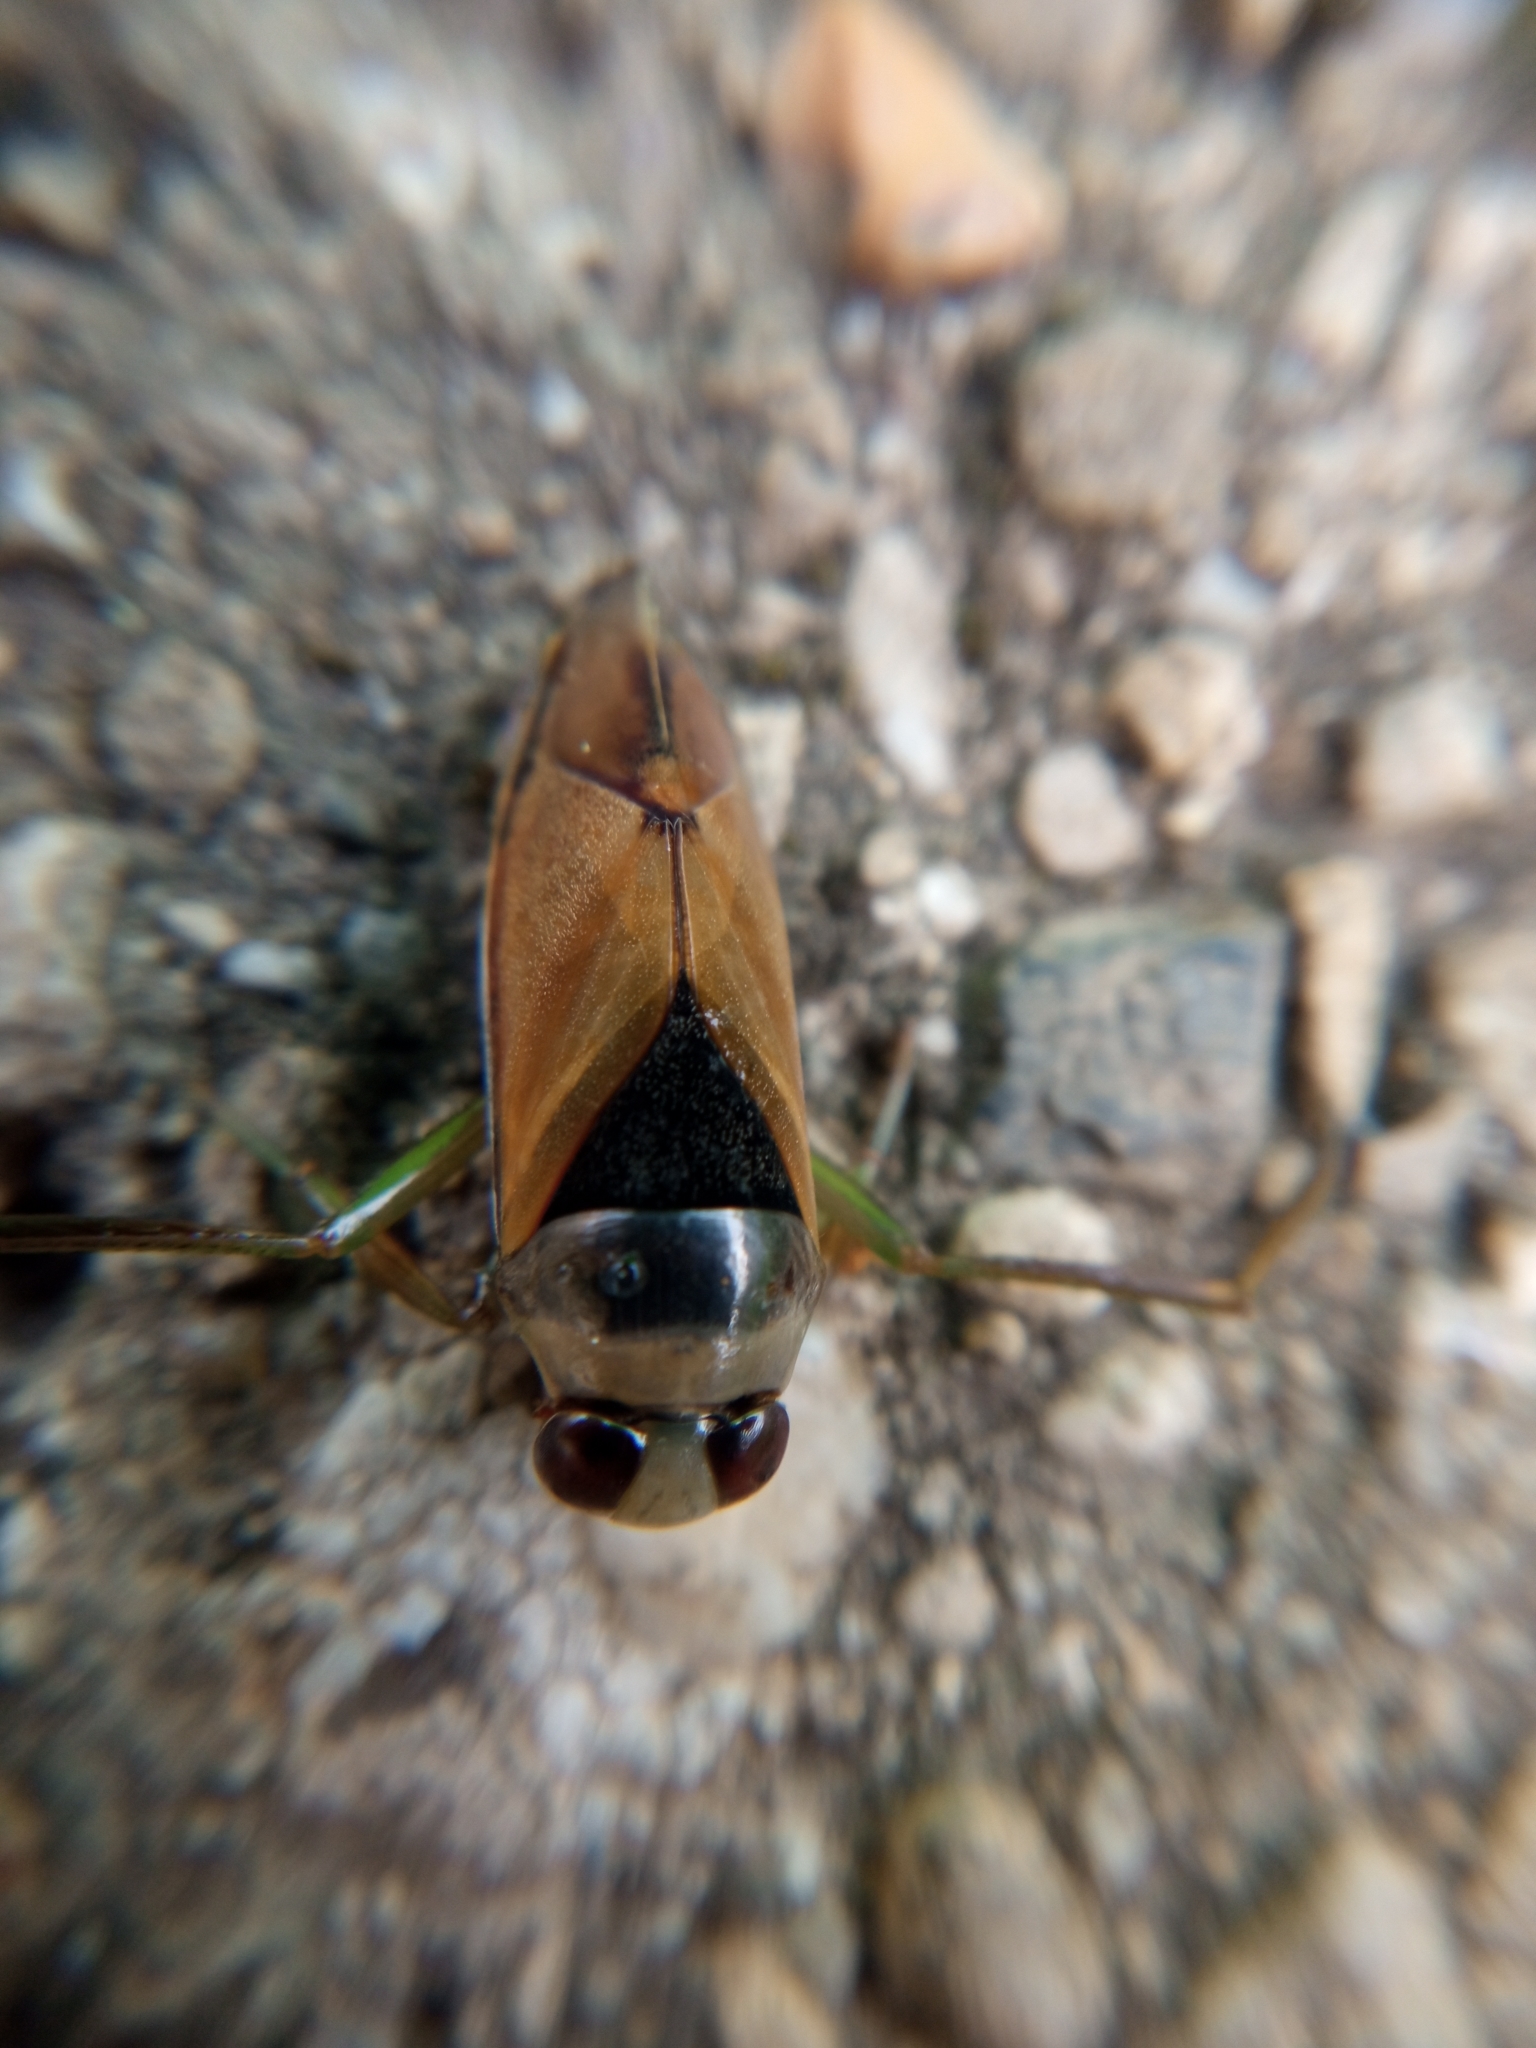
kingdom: Animalia
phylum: Arthropoda
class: Insecta
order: Hemiptera
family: Notonectidae
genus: Notonecta
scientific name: Notonecta glauca
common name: Common water-boatman
